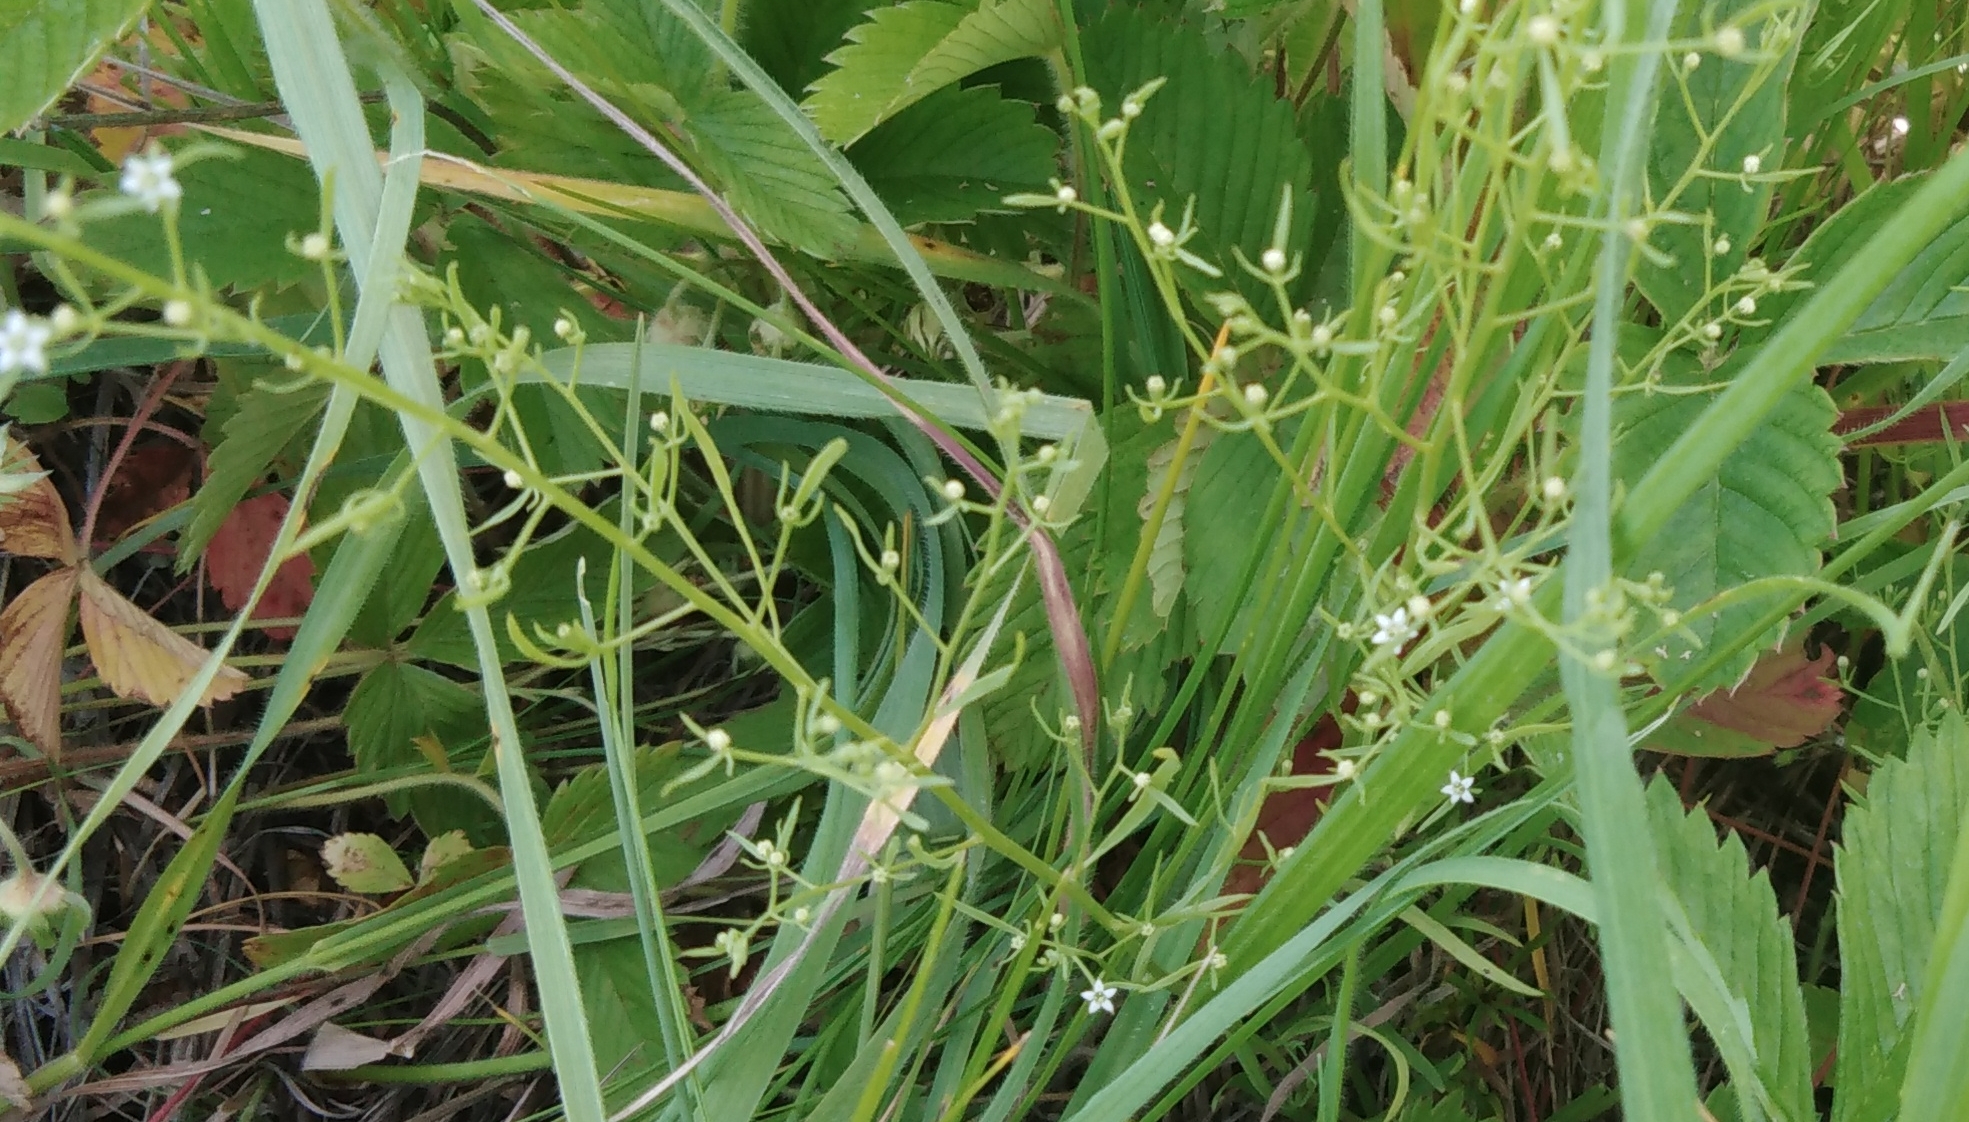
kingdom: Plantae
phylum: Tracheophyta
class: Magnoliopsida
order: Santalales
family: Thesiaceae
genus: Thesium
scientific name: Thesium ramosum
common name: Field thesium
